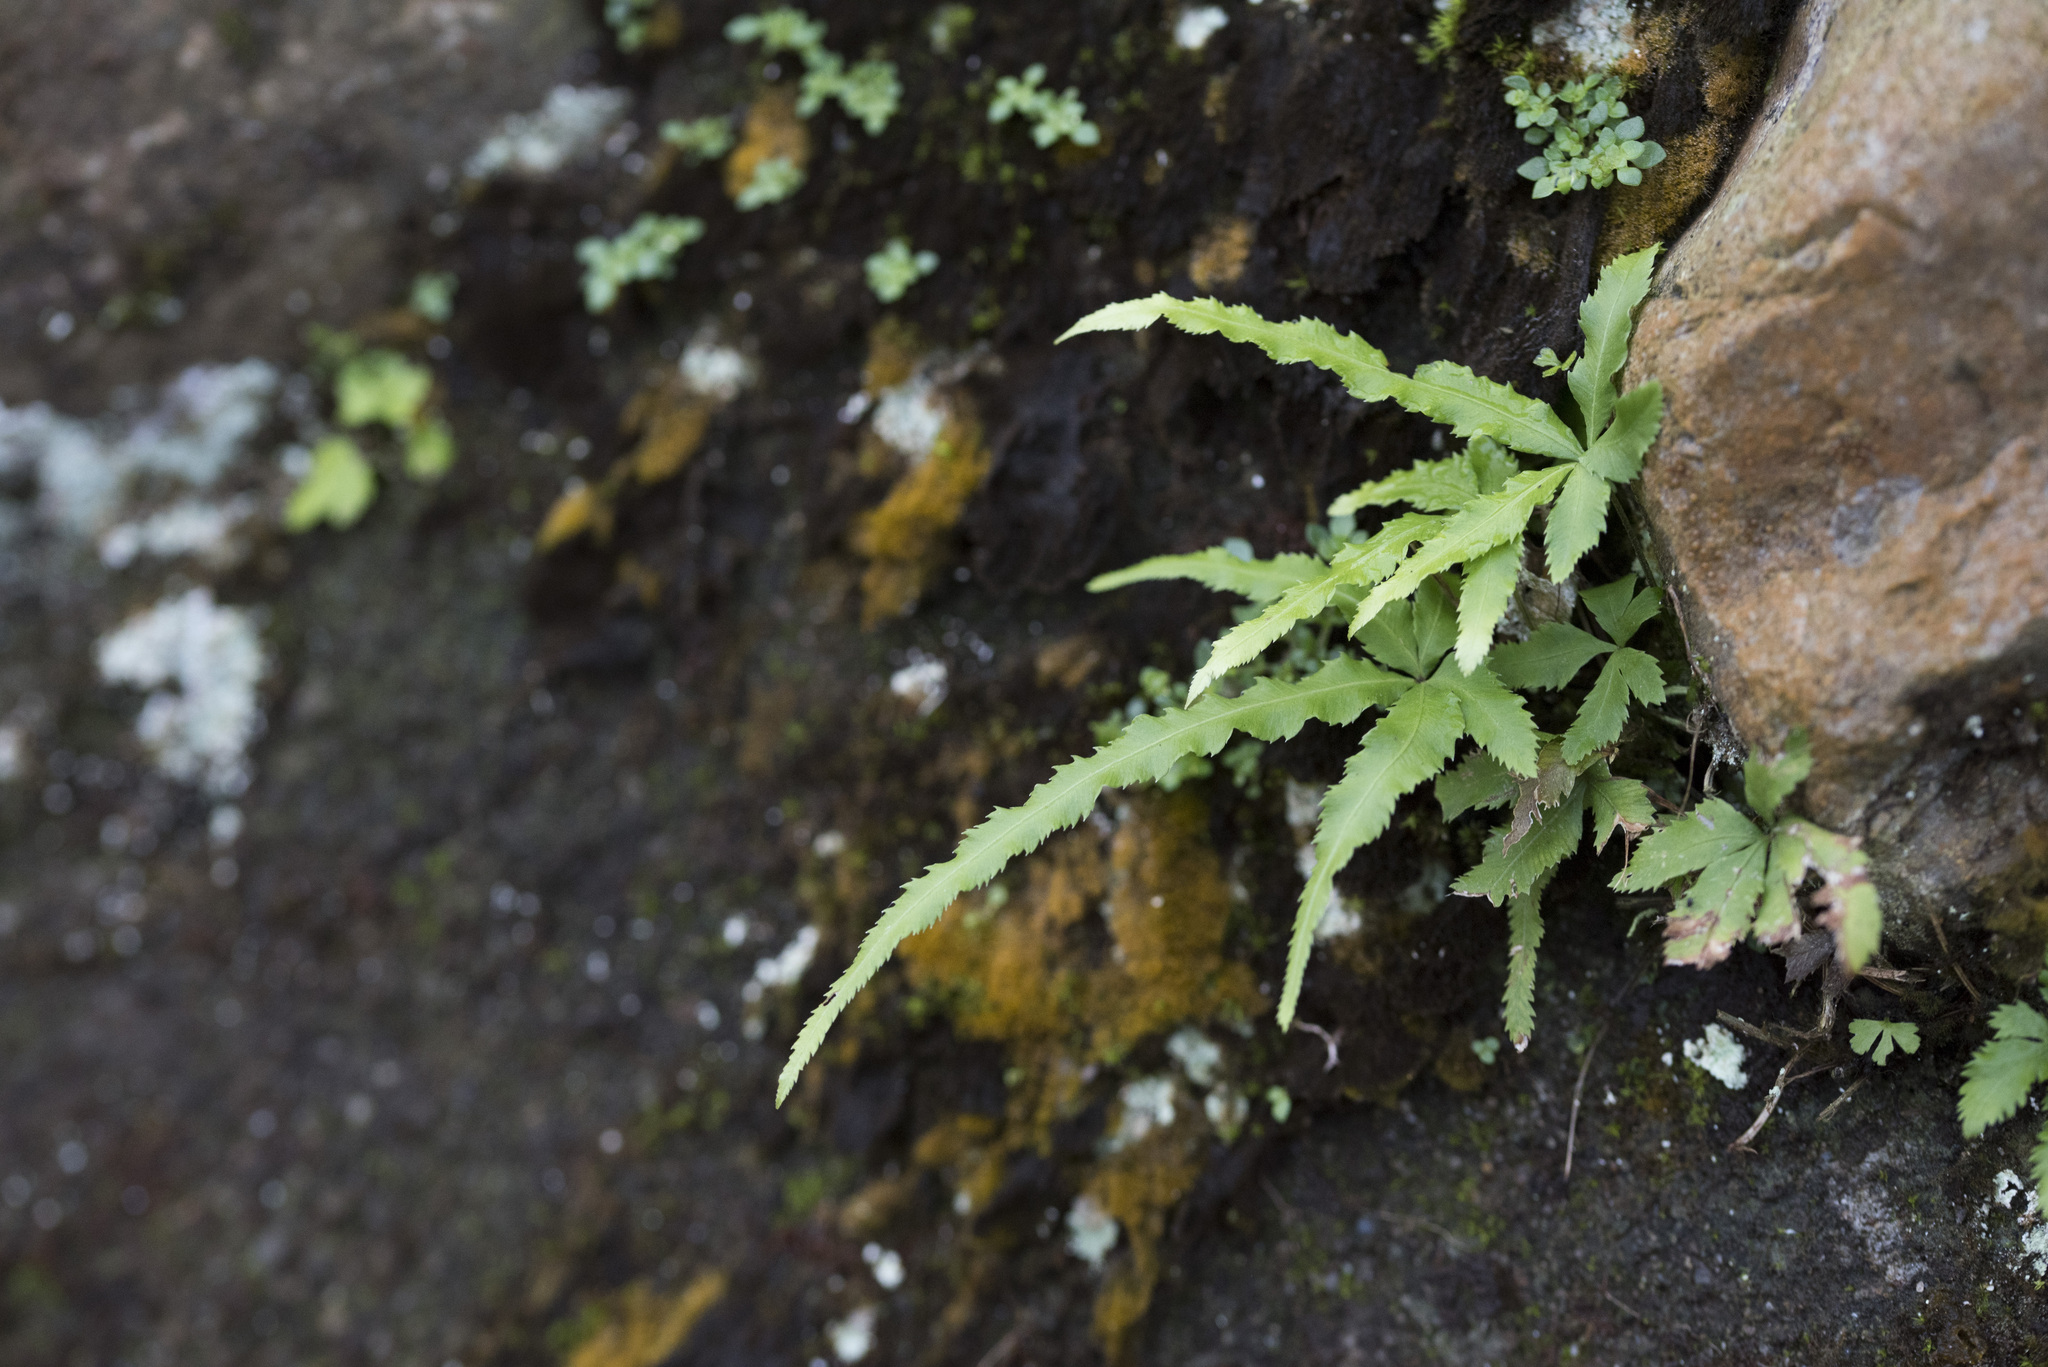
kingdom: Plantae
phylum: Tracheophyta
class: Polypodiopsida
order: Polypodiales
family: Pteridaceae
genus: Pteris
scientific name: Pteris multifida
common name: Spider brake
